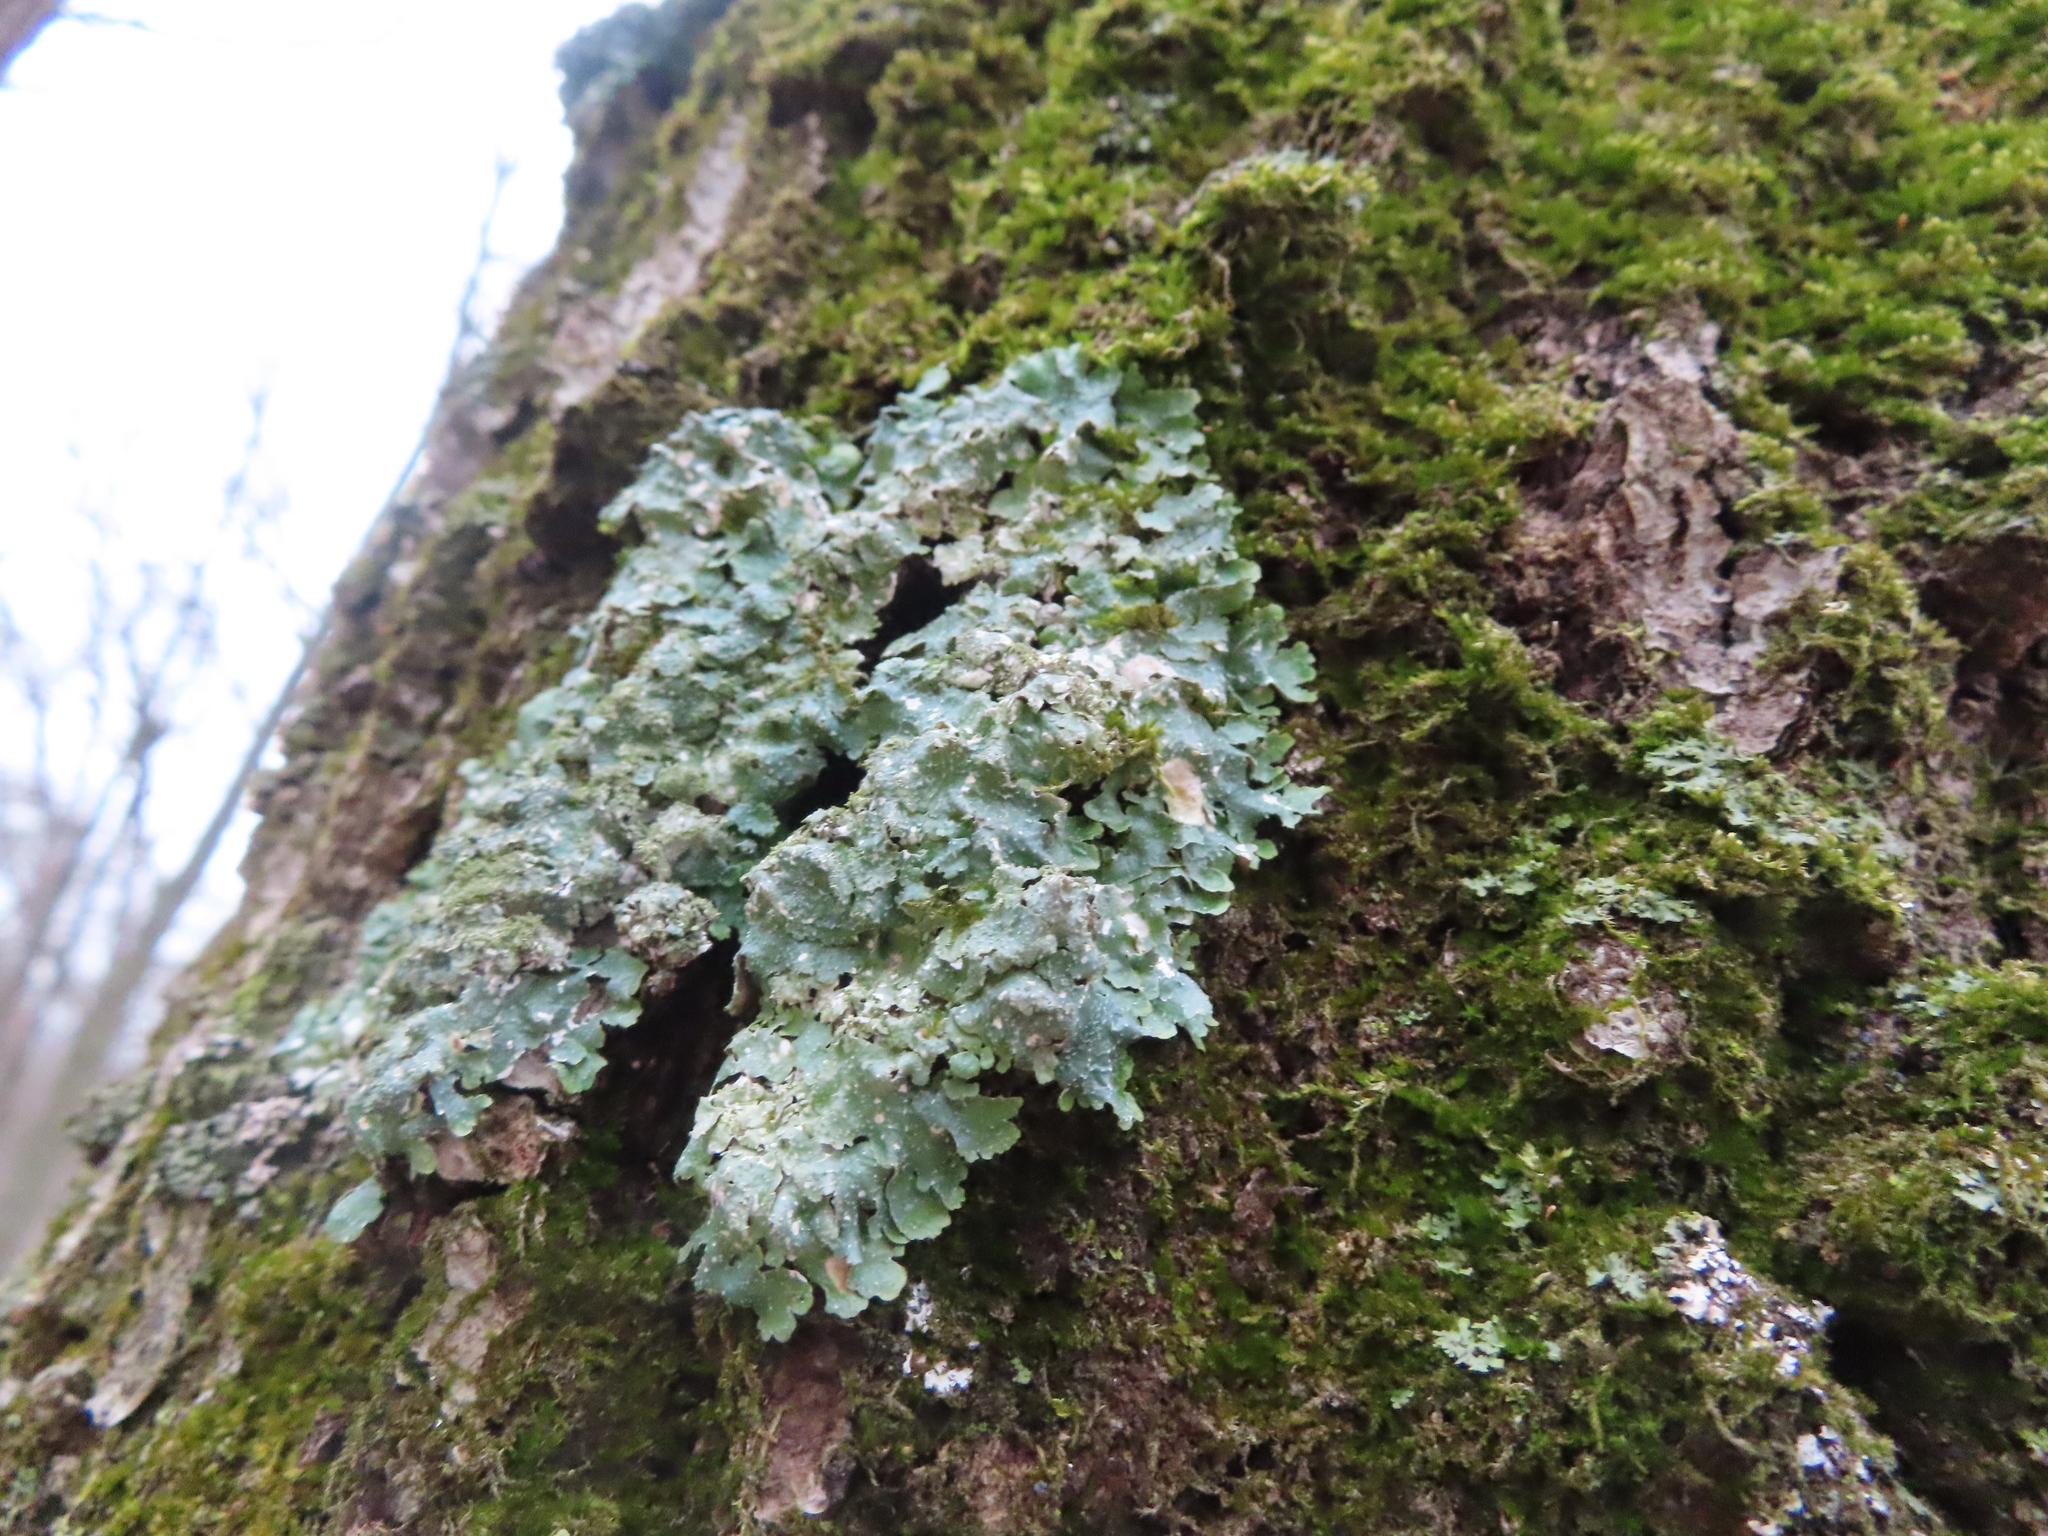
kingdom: Fungi
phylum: Ascomycota
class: Lecanoromycetes
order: Lecanorales
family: Parmeliaceae
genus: Punctelia
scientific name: Punctelia rudecta
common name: Rough speckled shield lichen
